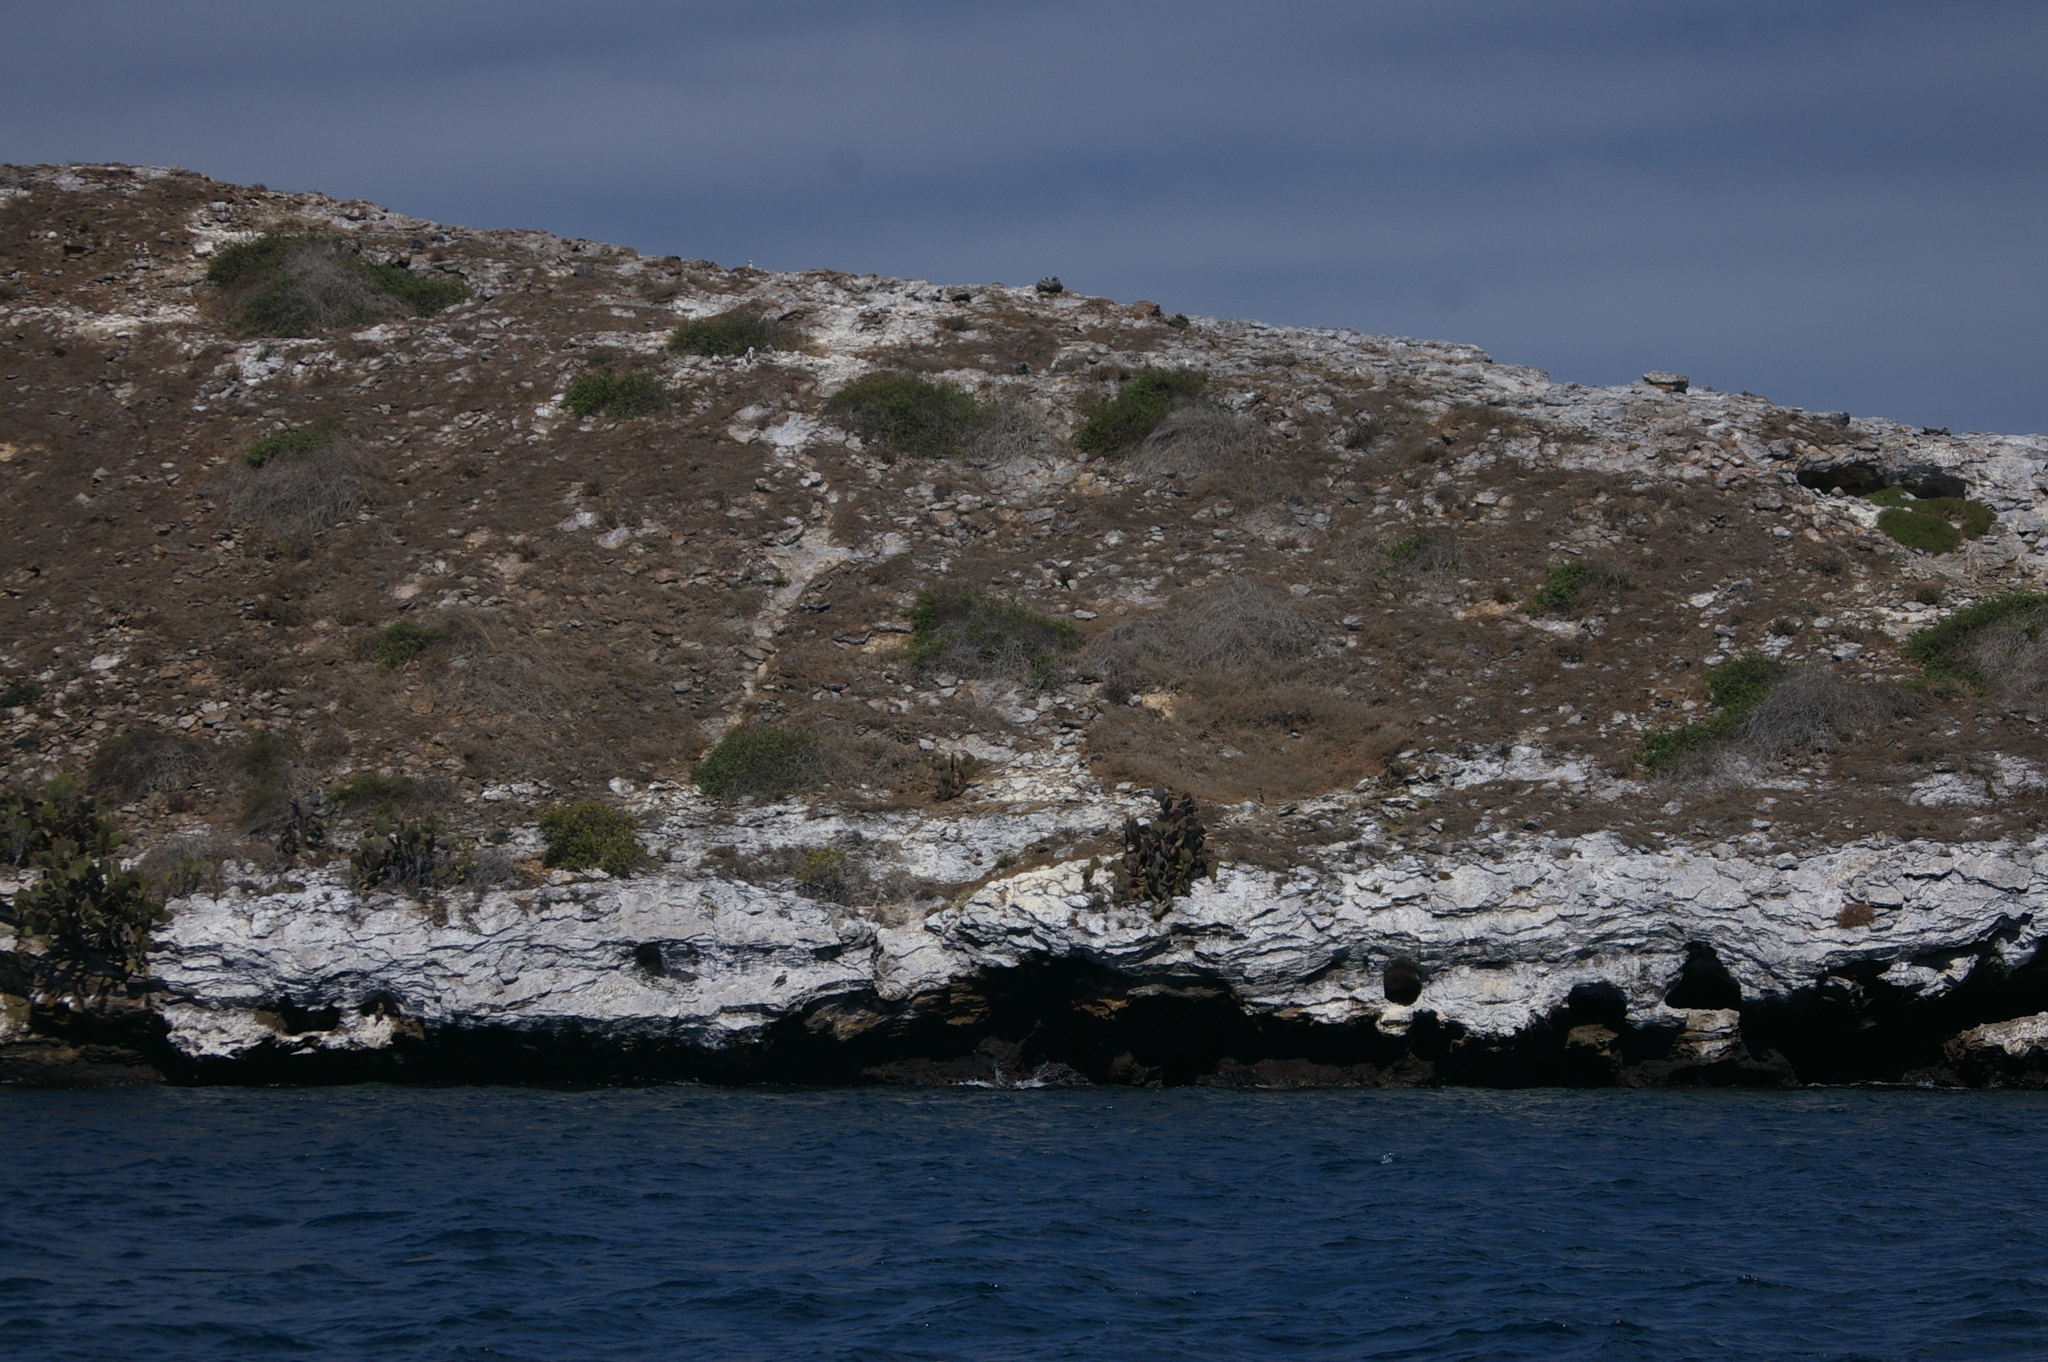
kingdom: Plantae
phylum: Tracheophyta
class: Magnoliopsida
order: Caryophyllales
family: Cactaceae
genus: Opuntia
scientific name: Opuntia galapageia
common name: Galápagos prickly pear
